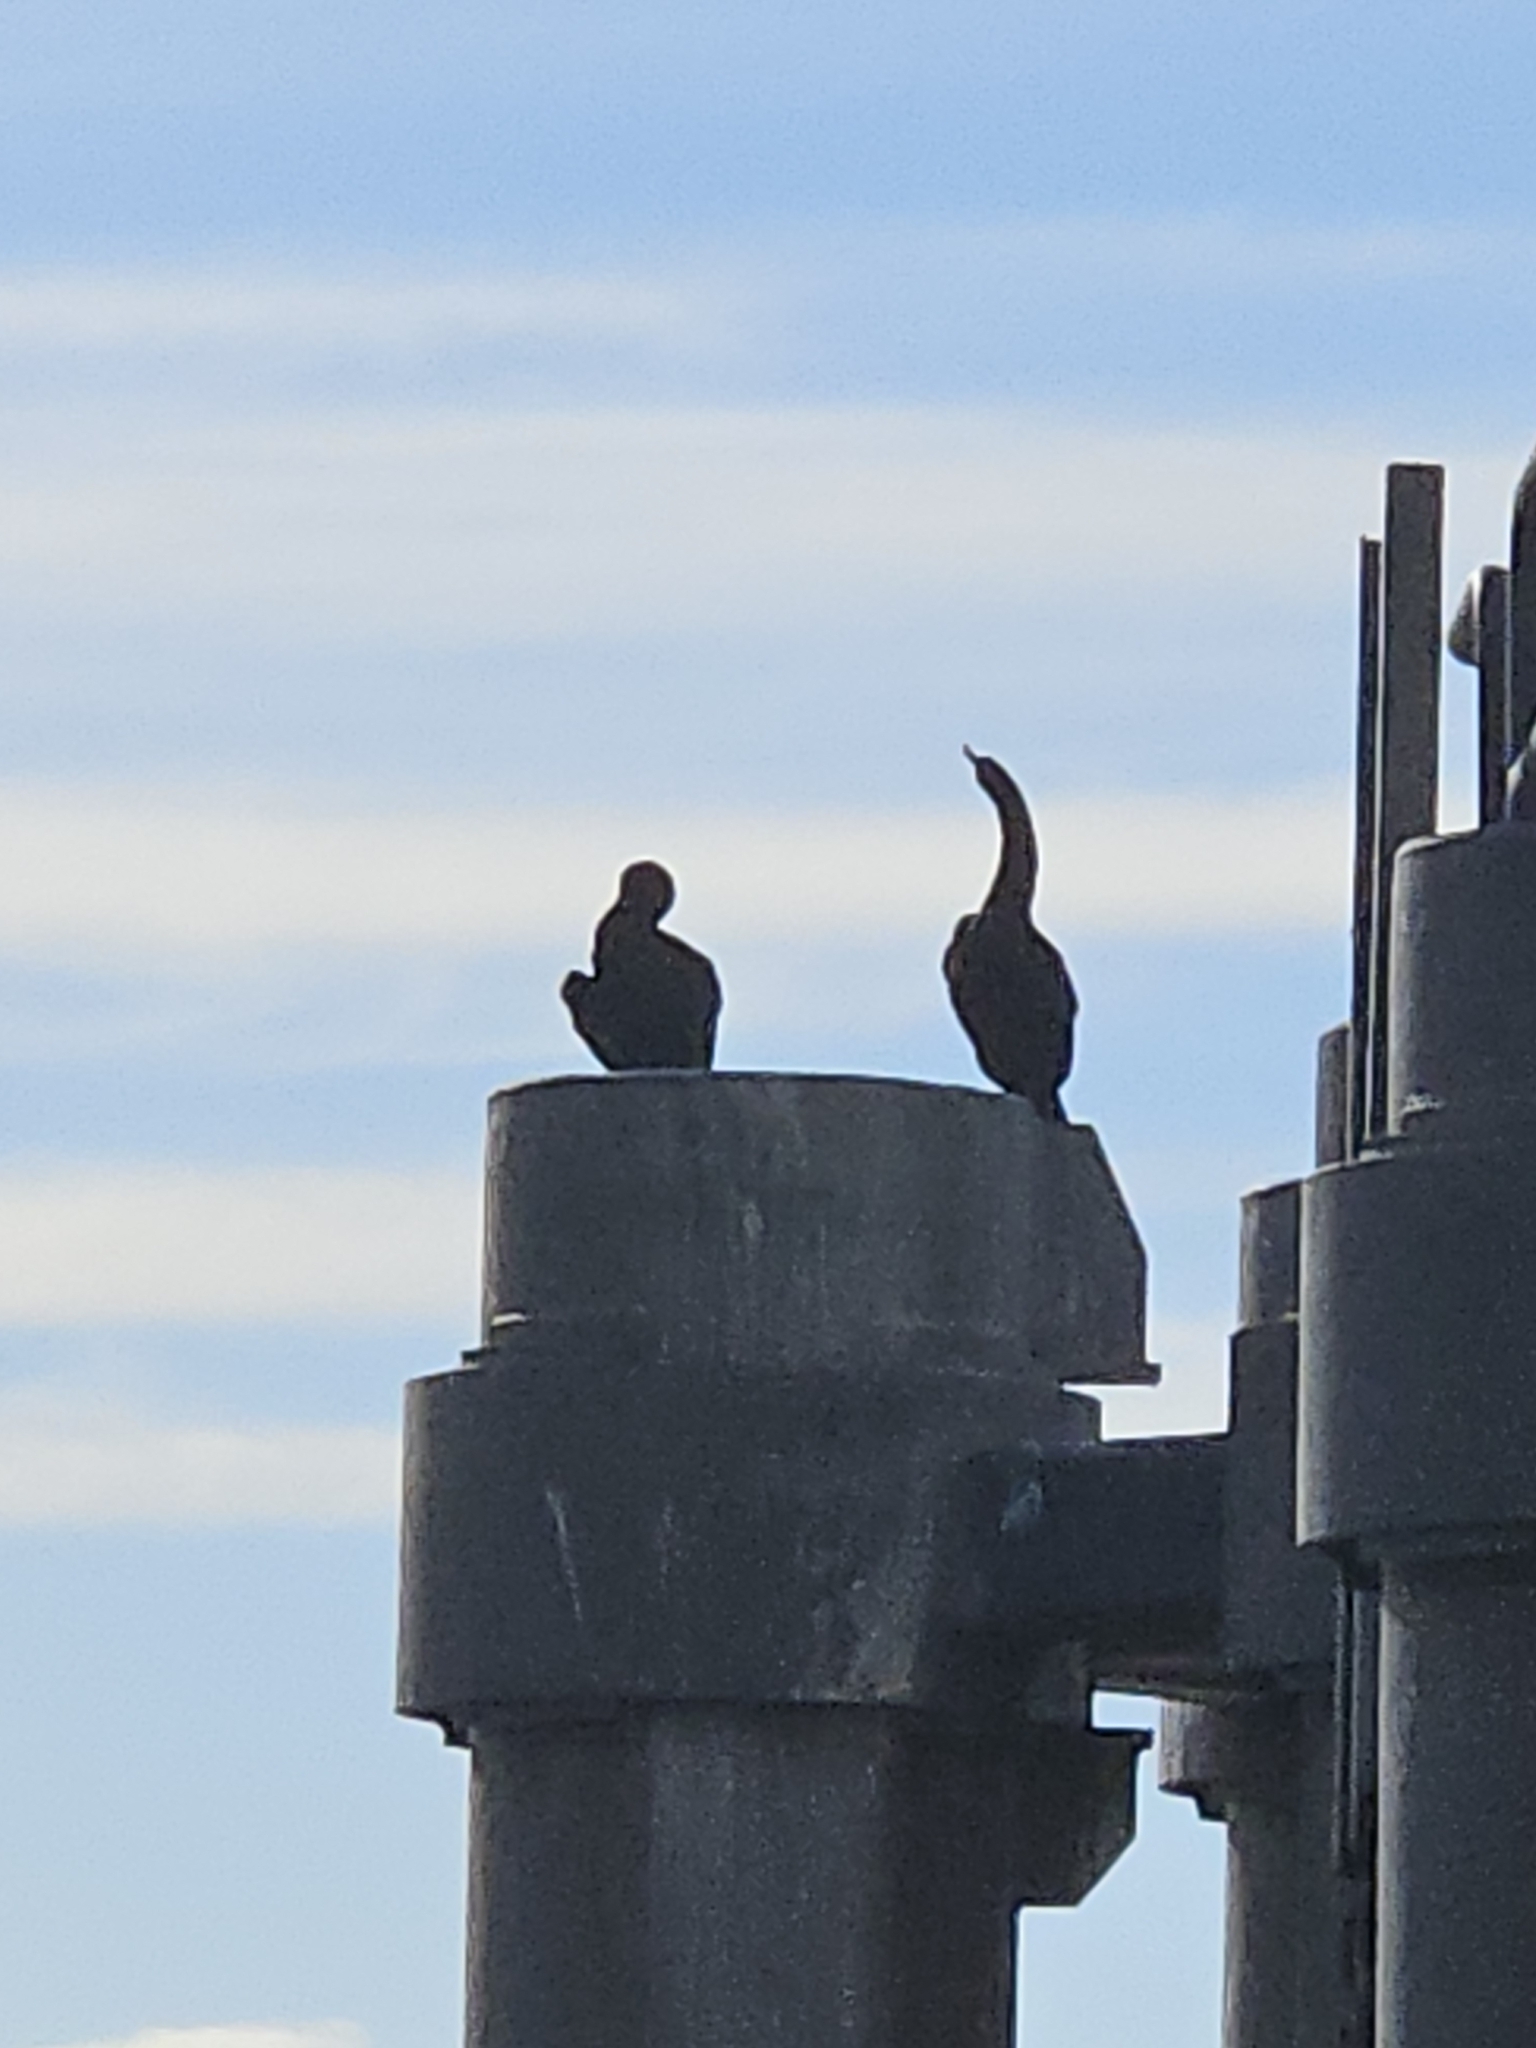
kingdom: Animalia
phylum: Chordata
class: Aves
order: Suliformes
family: Phalacrocoracidae
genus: Phalacrocorax
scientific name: Phalacrocorax pelagicus
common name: Pelagic cormorant
